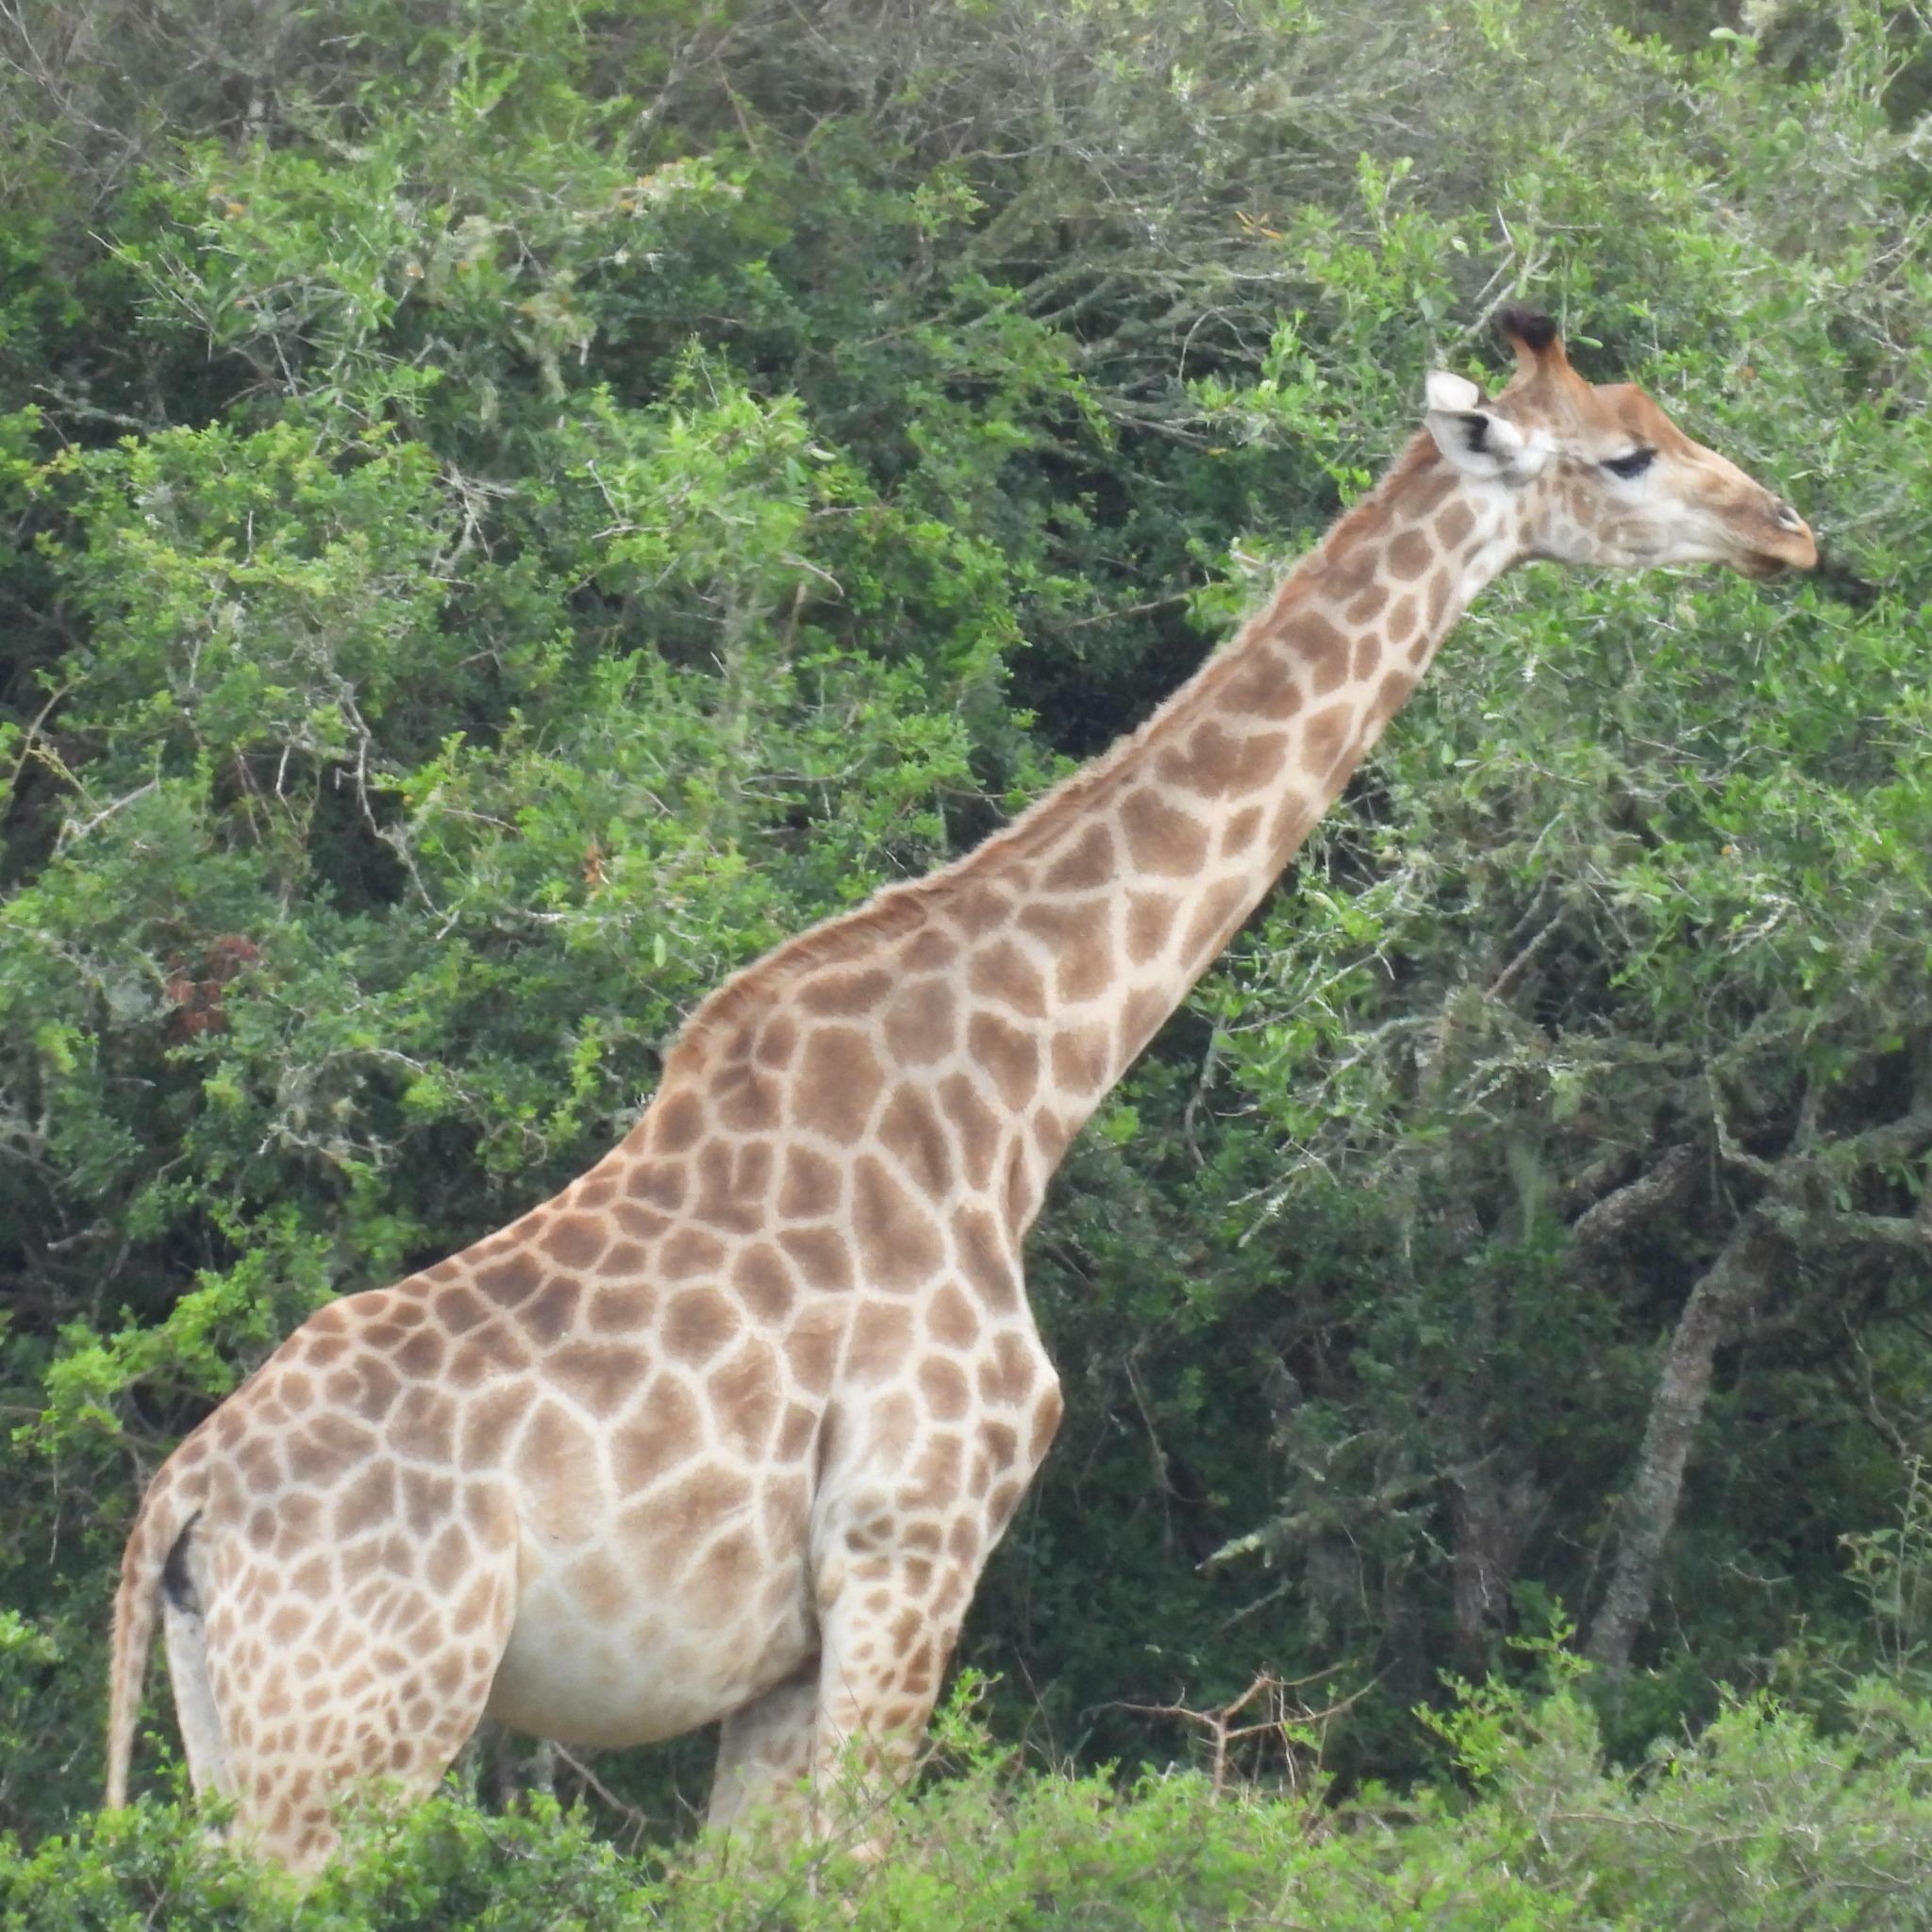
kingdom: Animalia
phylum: Chordata
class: Mammalia
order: Artiodactyla
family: Giraffidae
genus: Giraffa
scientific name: Giraffa giraffa
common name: Southern giraffe
